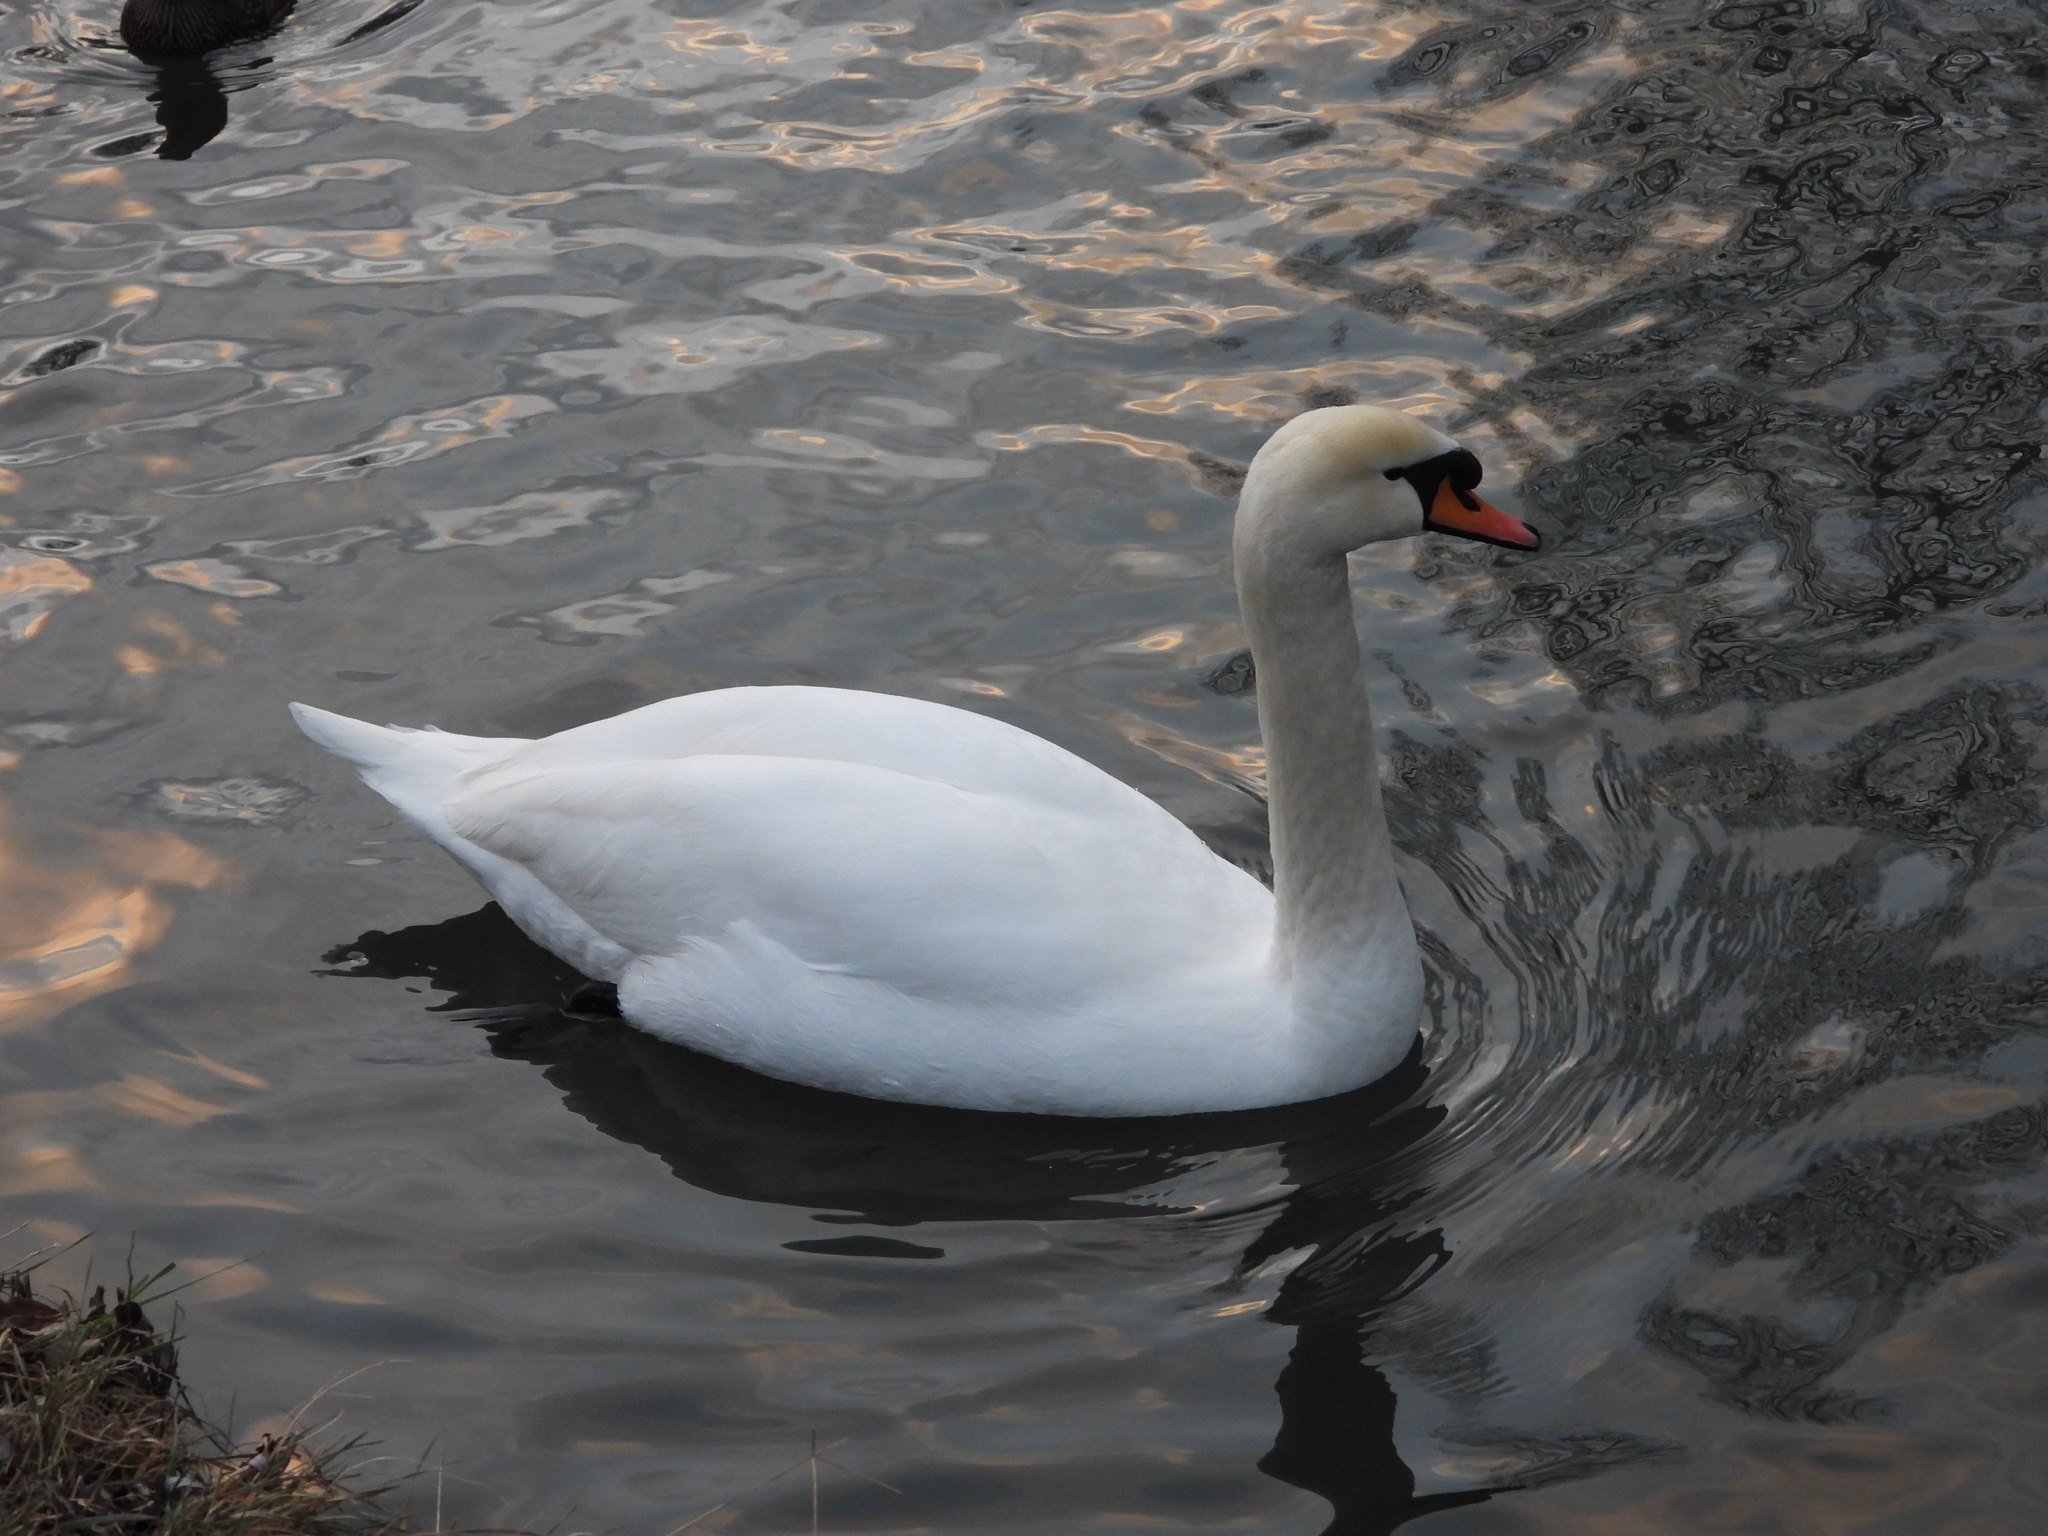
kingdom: Animalia
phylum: Chordata
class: Aves
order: Anseriformes
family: Anatidae
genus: Cygnus
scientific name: Cygnus olor
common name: Mute swan
